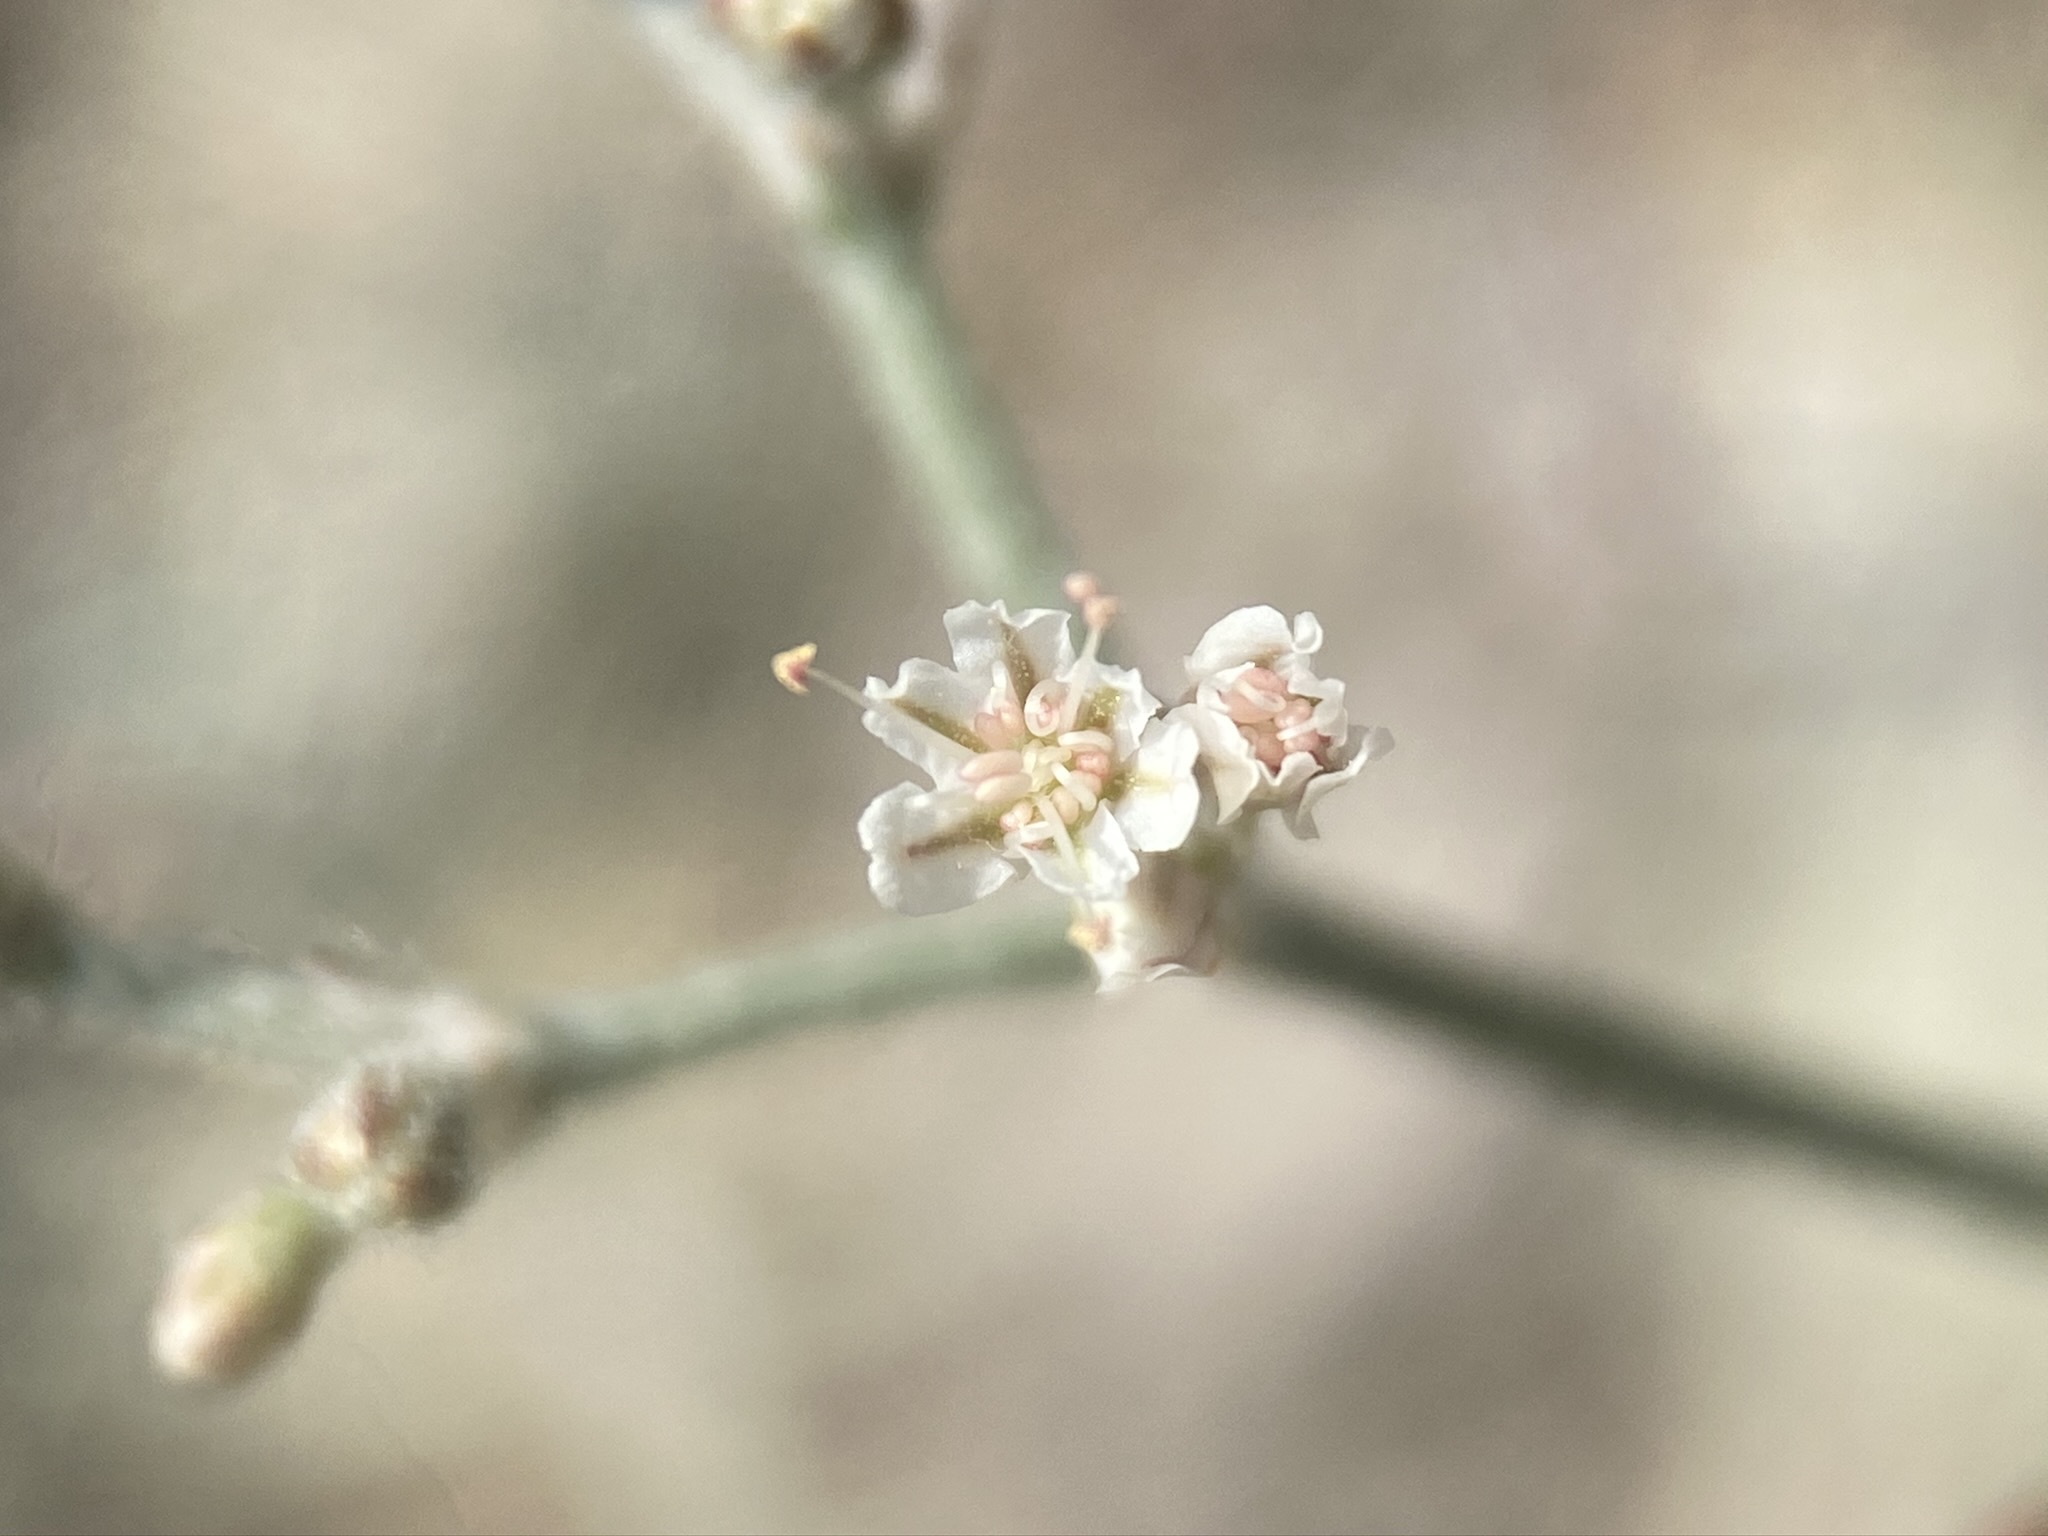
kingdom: Plantae
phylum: Tracheophyta
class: Magnoliopsida
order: Caryophyllales
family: Polygonaceae
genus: Eriogonum
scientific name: Eriogonum microtheca
